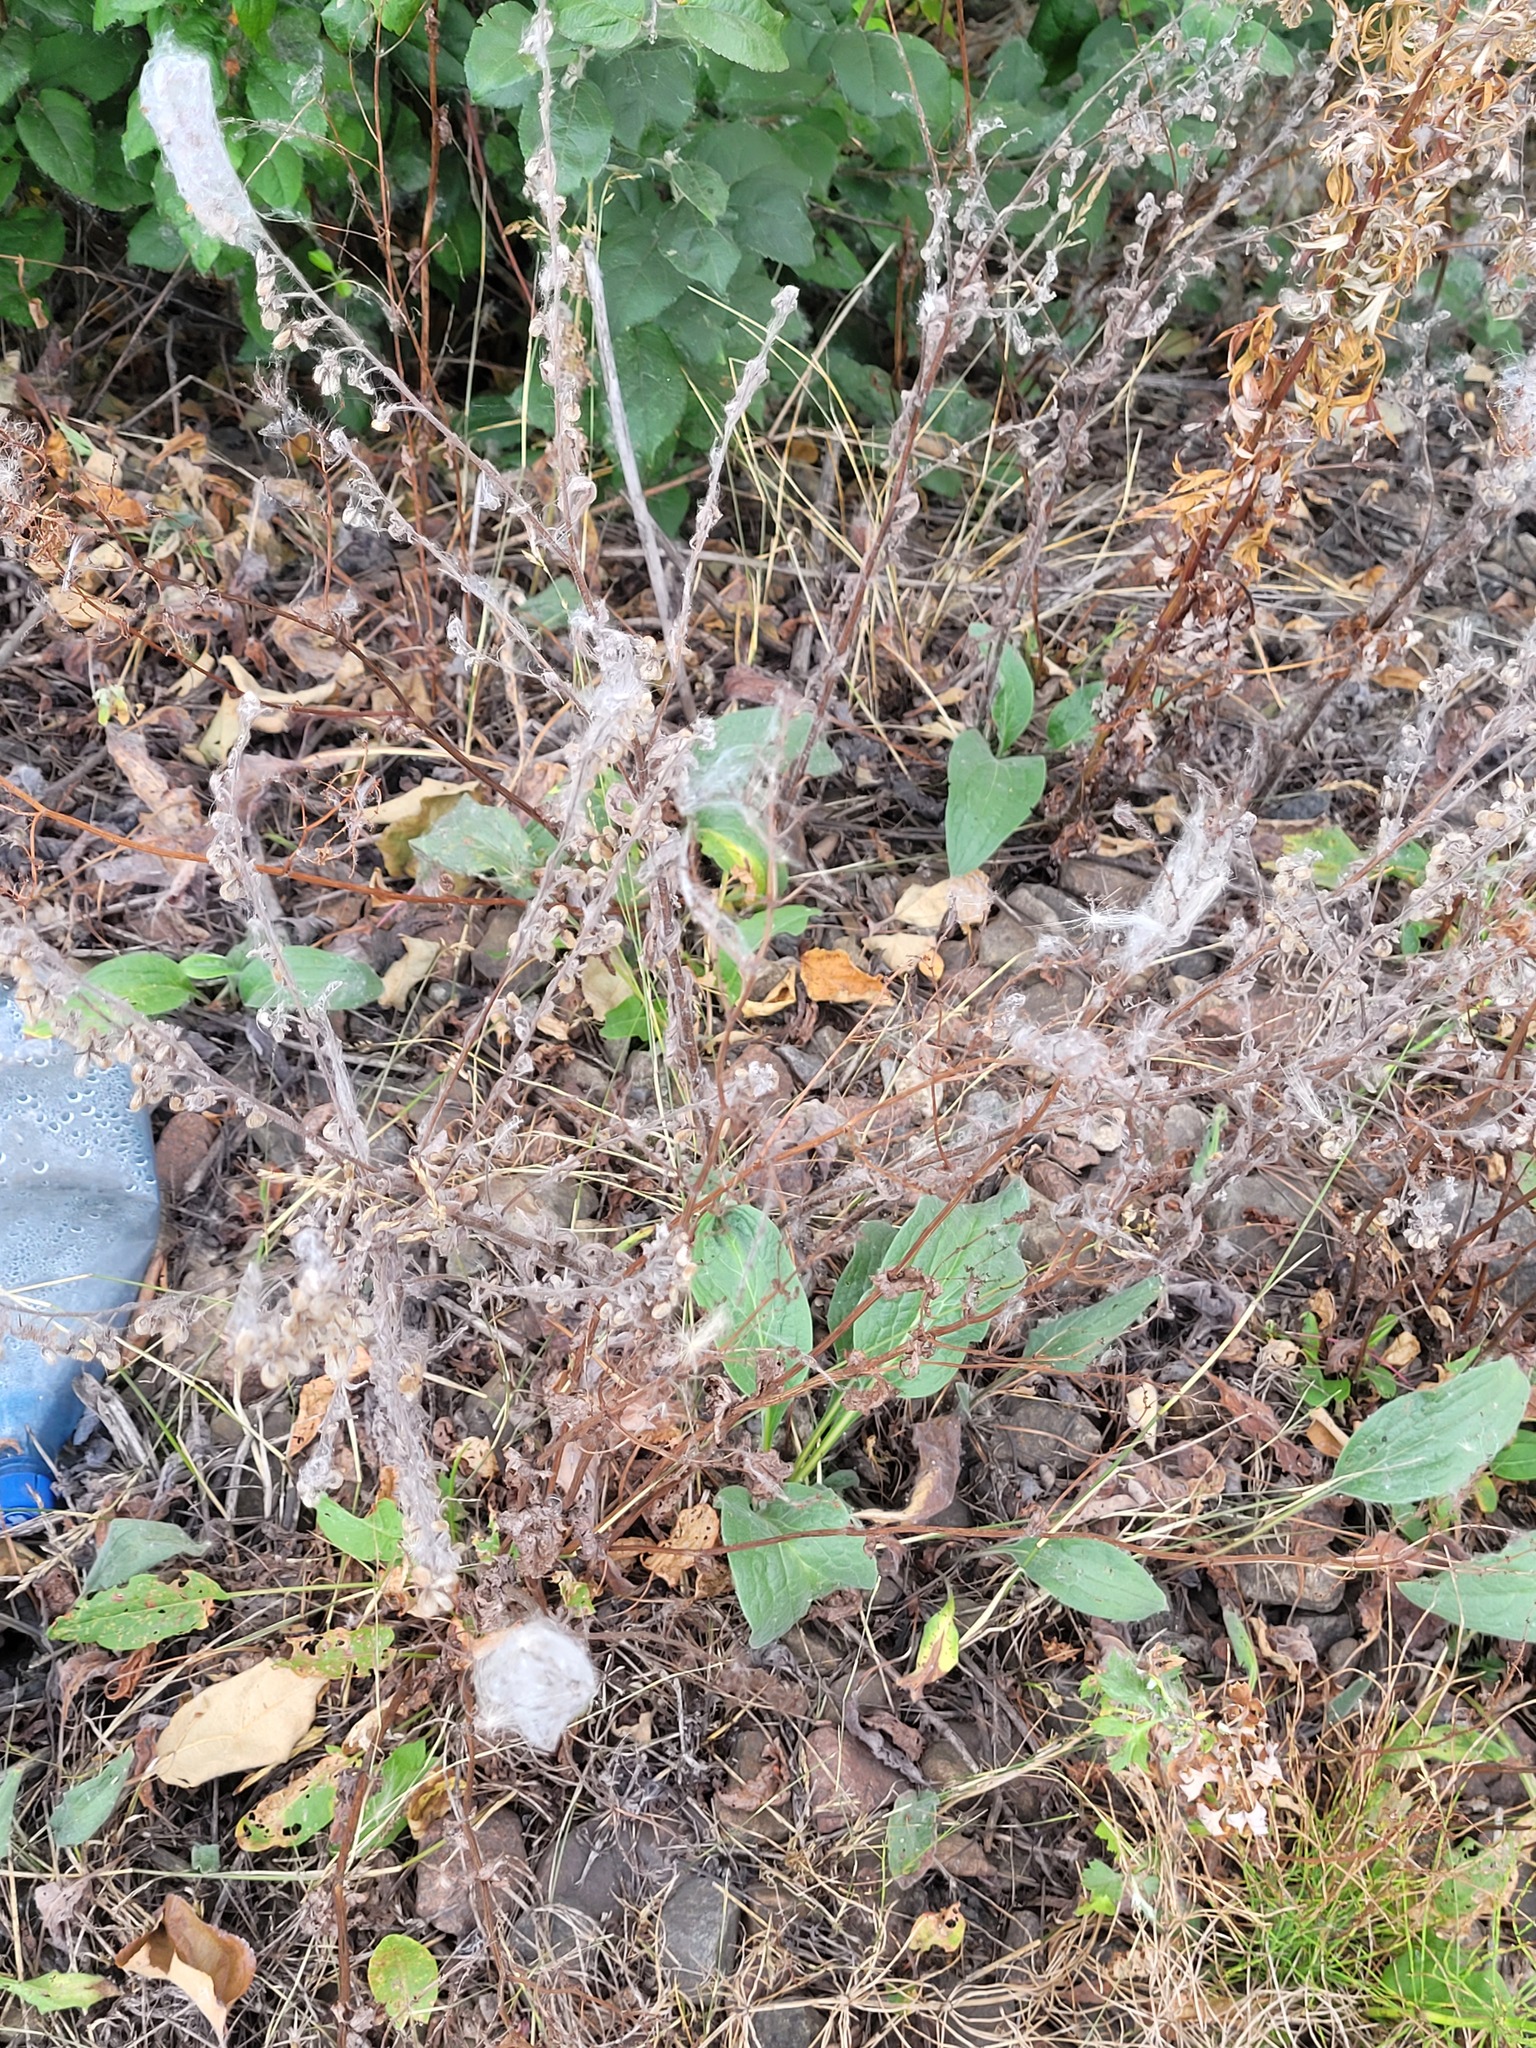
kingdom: Plantae
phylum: Tracheophyta
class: Magnoliopsida
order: Boraginales
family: Boraginaceae
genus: Cynoglossum
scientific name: Cynoglossum officinale
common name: Hound's-tongue
